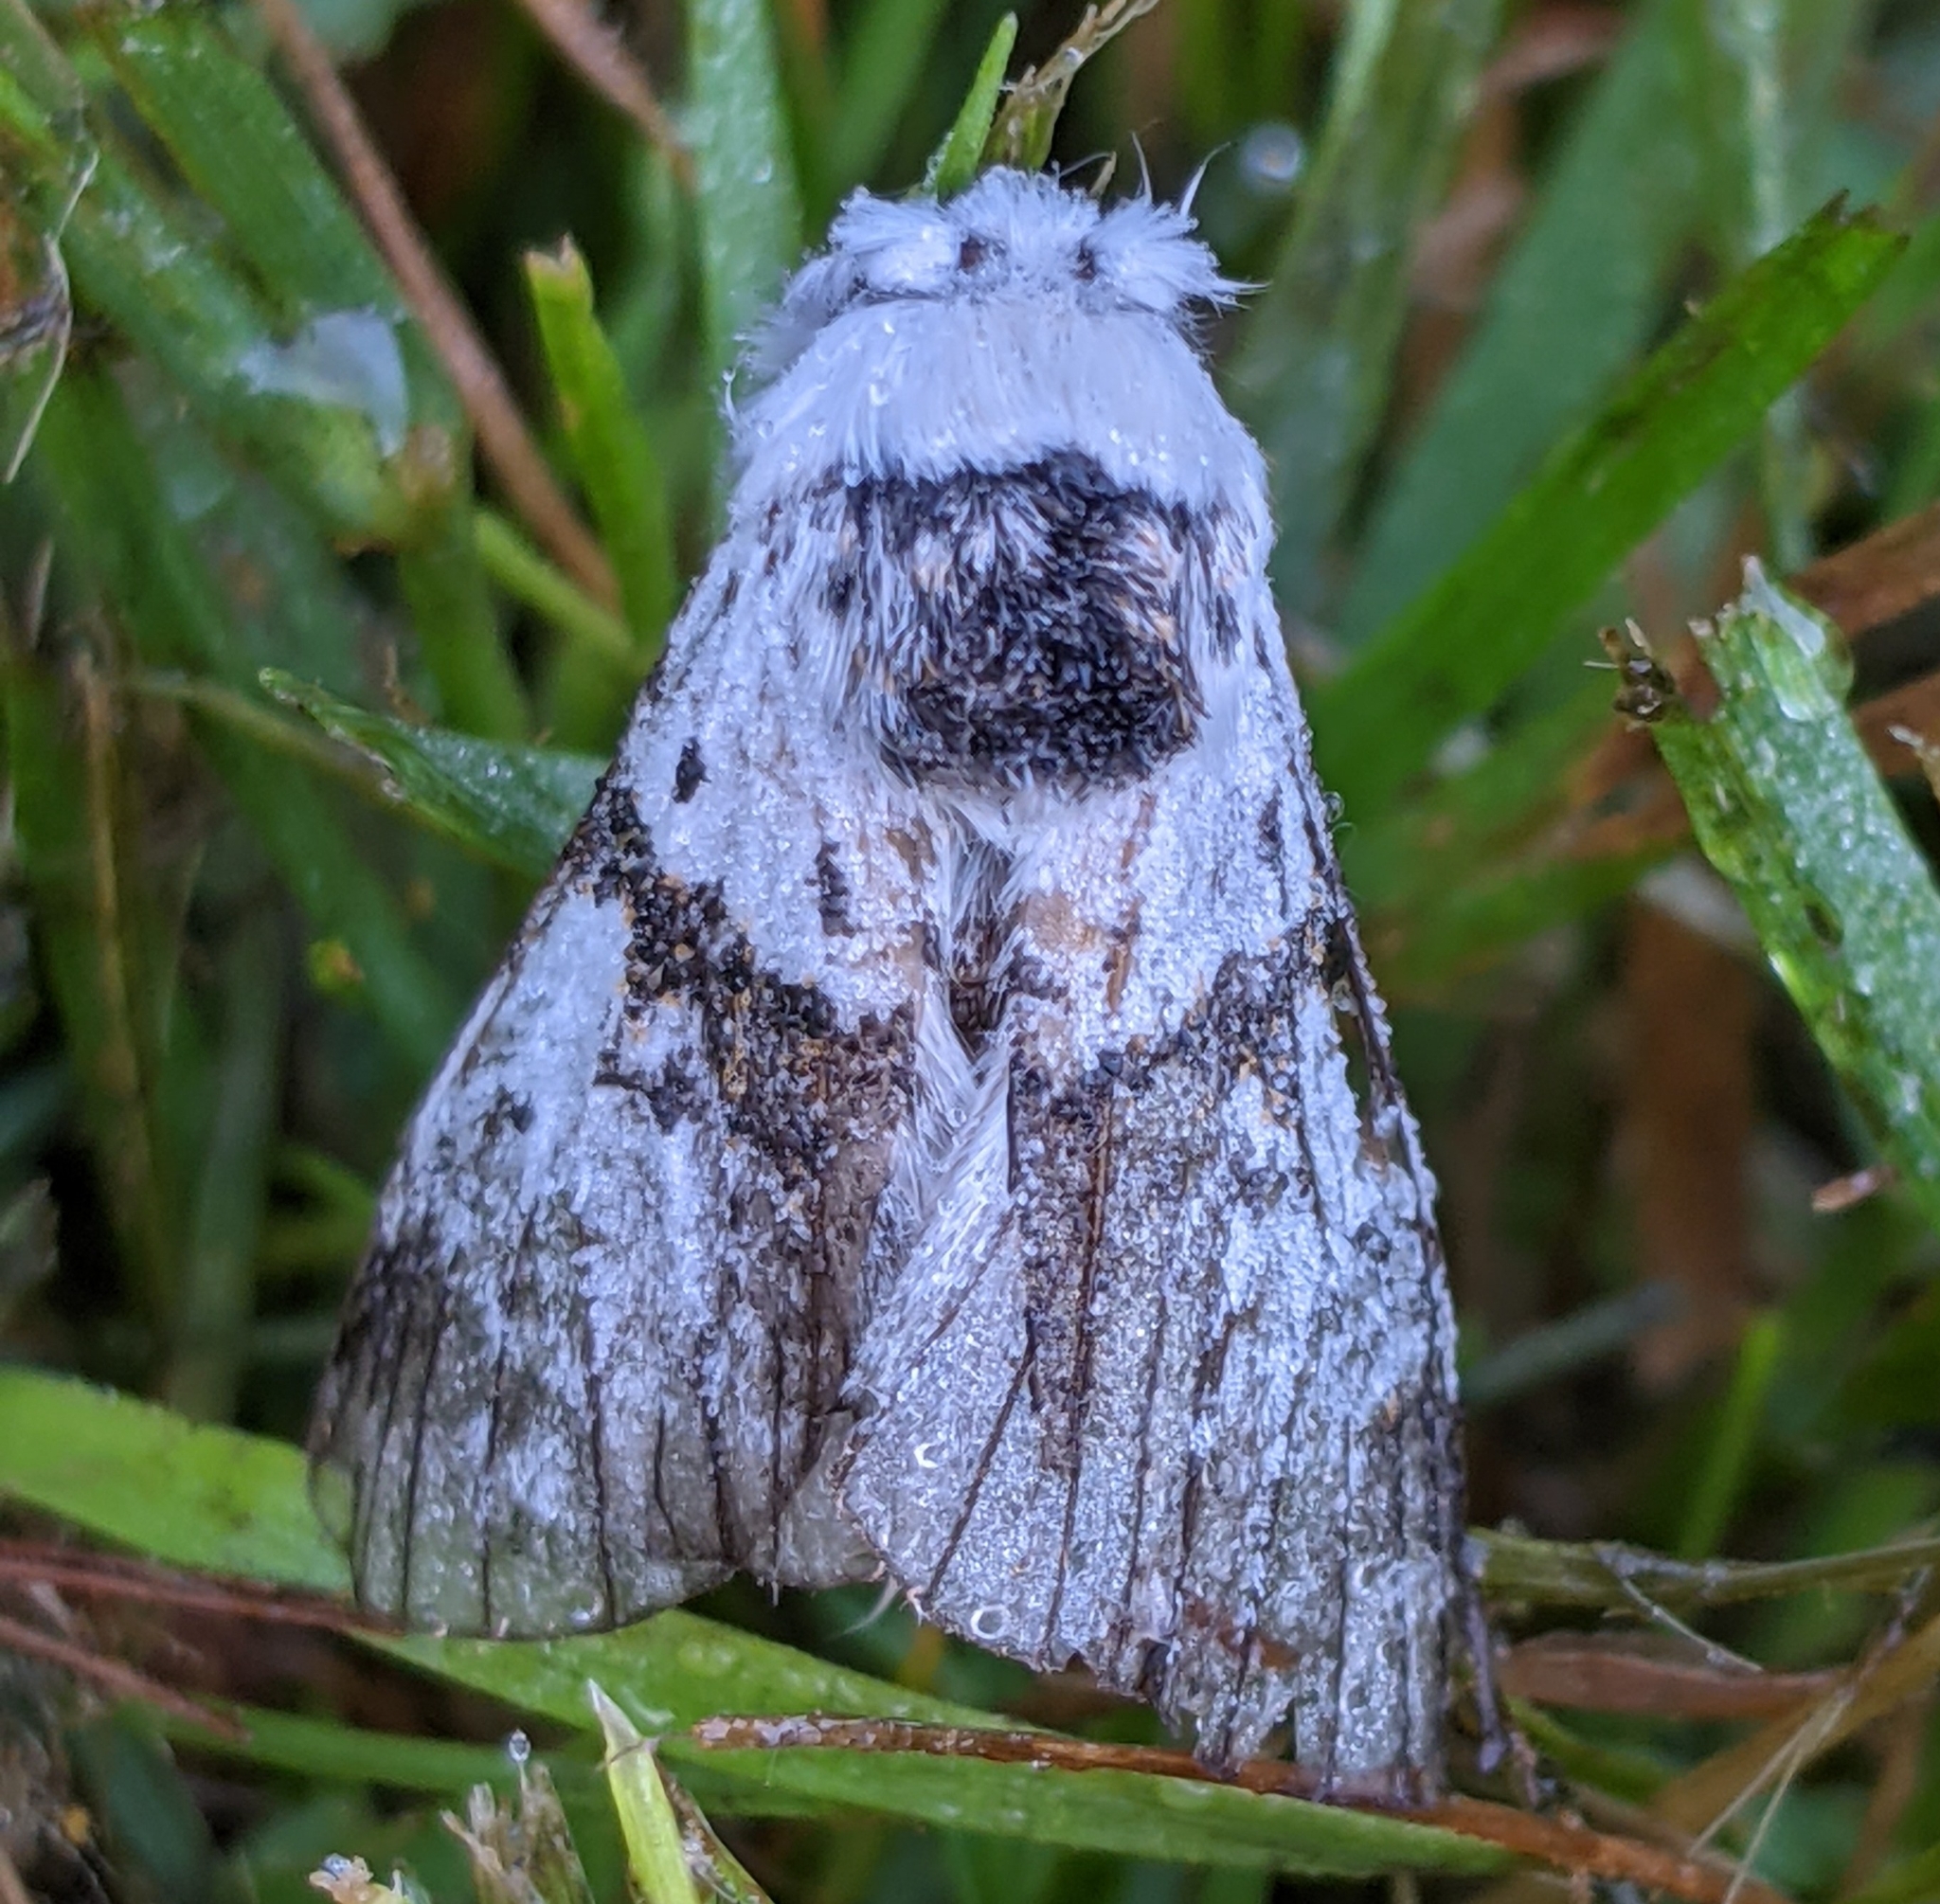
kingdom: Animalia
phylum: Arthropoda
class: Insecta
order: Lepidoptera
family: Notodontidae
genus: Furcula
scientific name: Furcula scolopendrina
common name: Zigzag furcula moth
